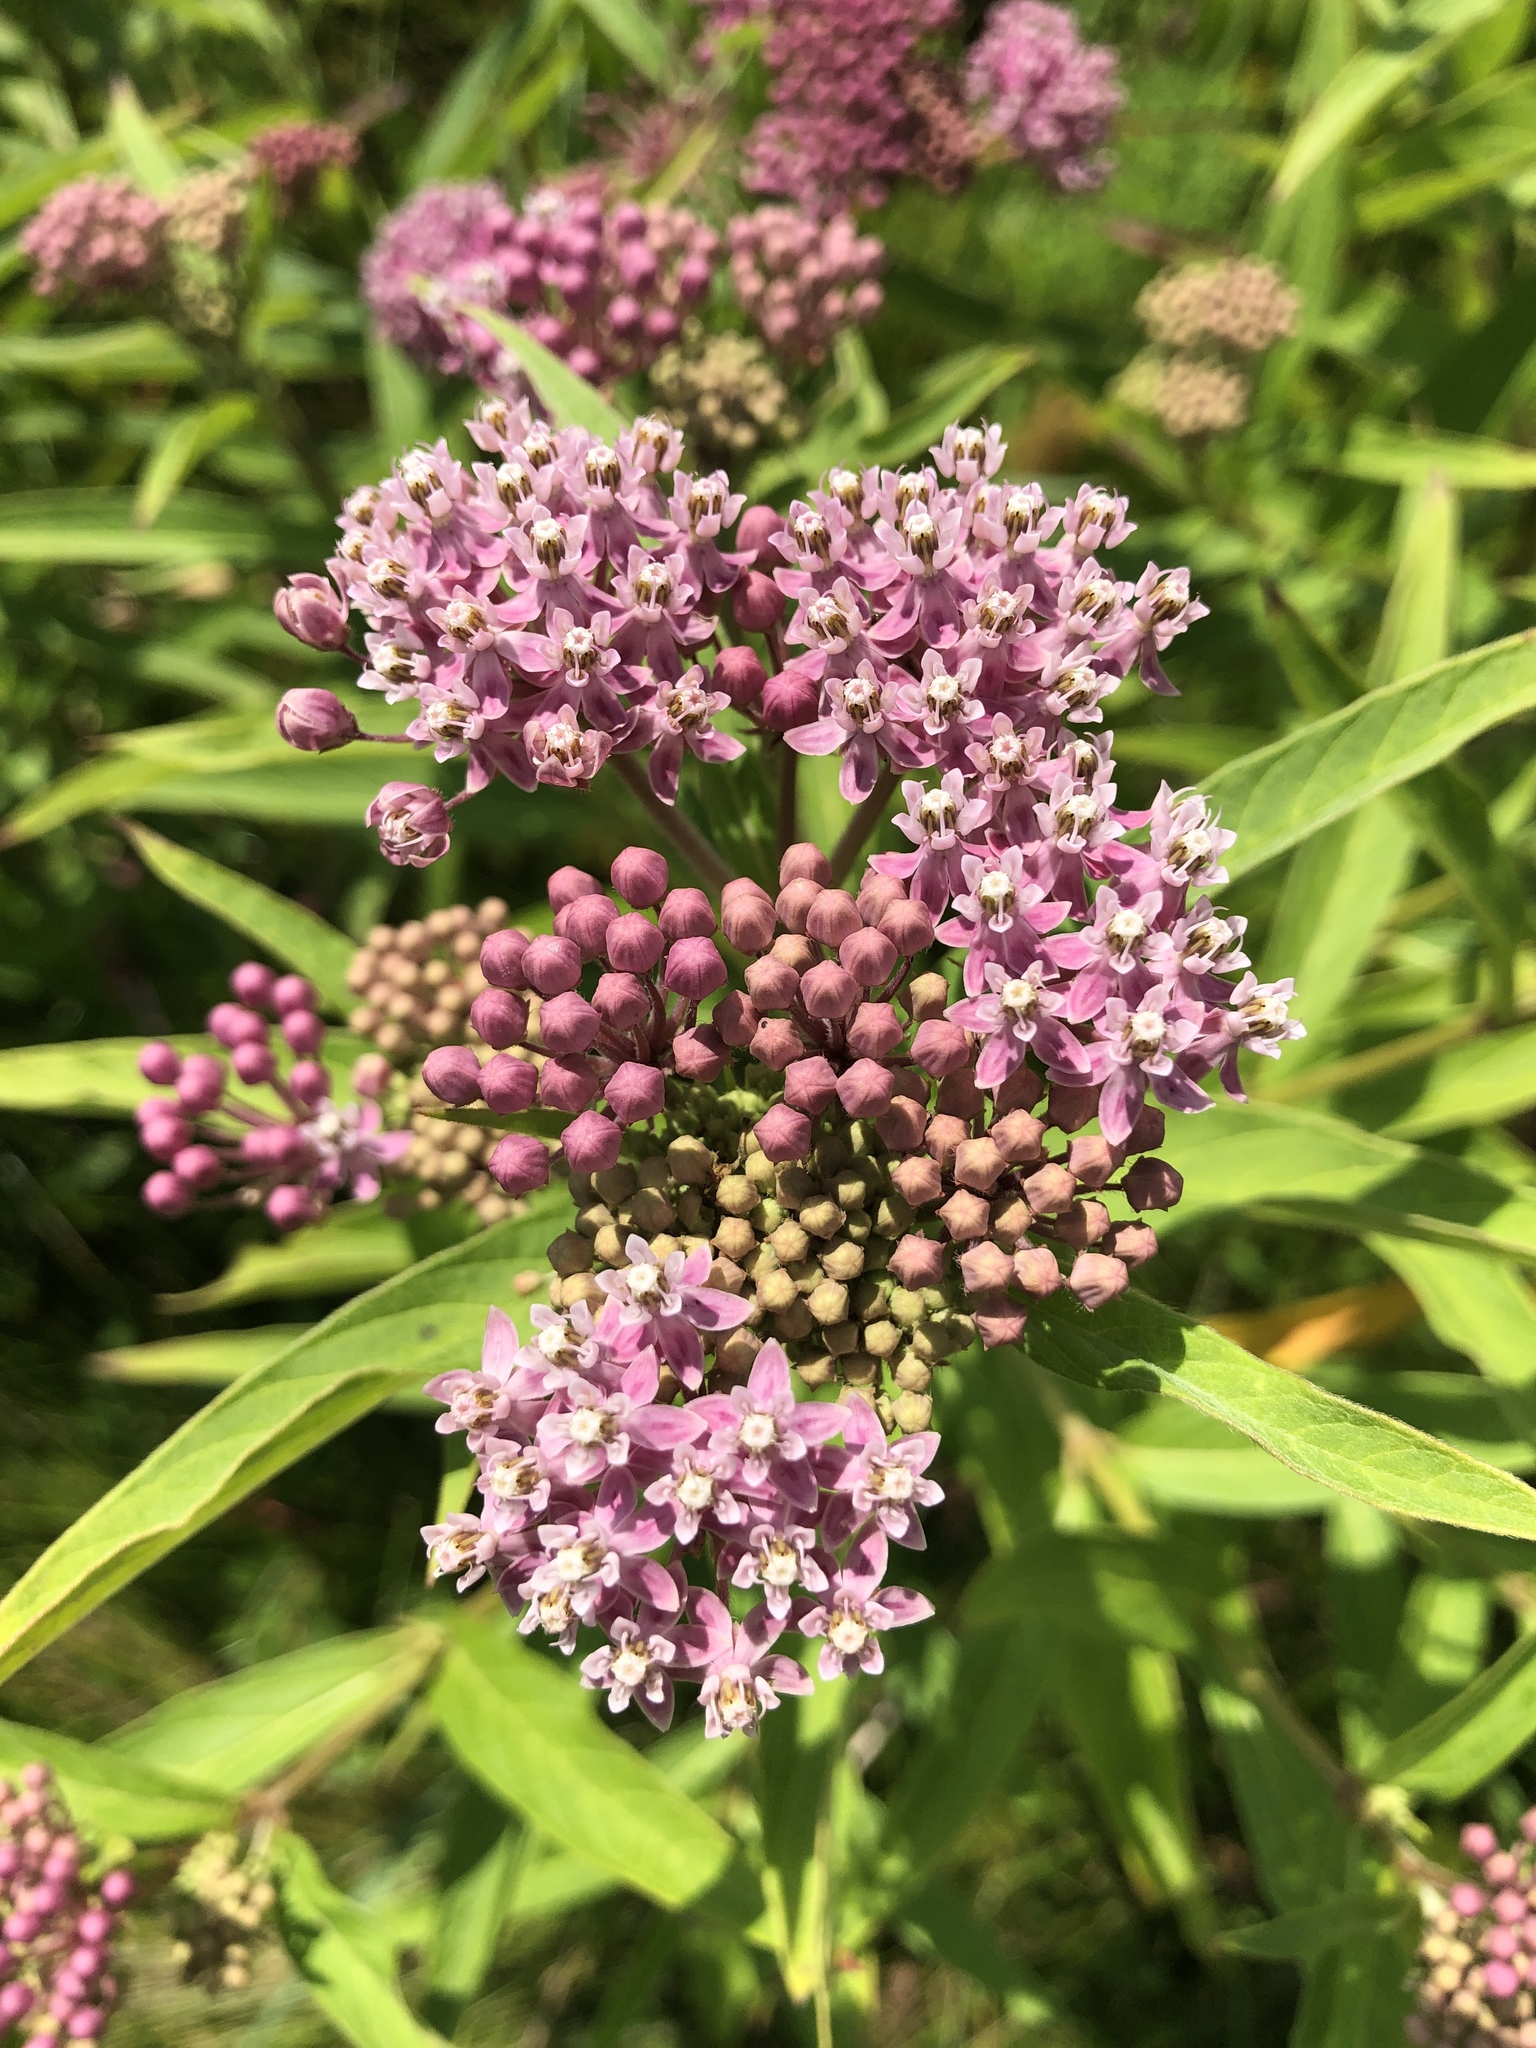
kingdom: Plantae
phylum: Tracheophyta
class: Magnoliopsida
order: Gentianales
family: Apocynaceae
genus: Asclepias
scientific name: Asclepias incarnata
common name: Swamp milkweed
